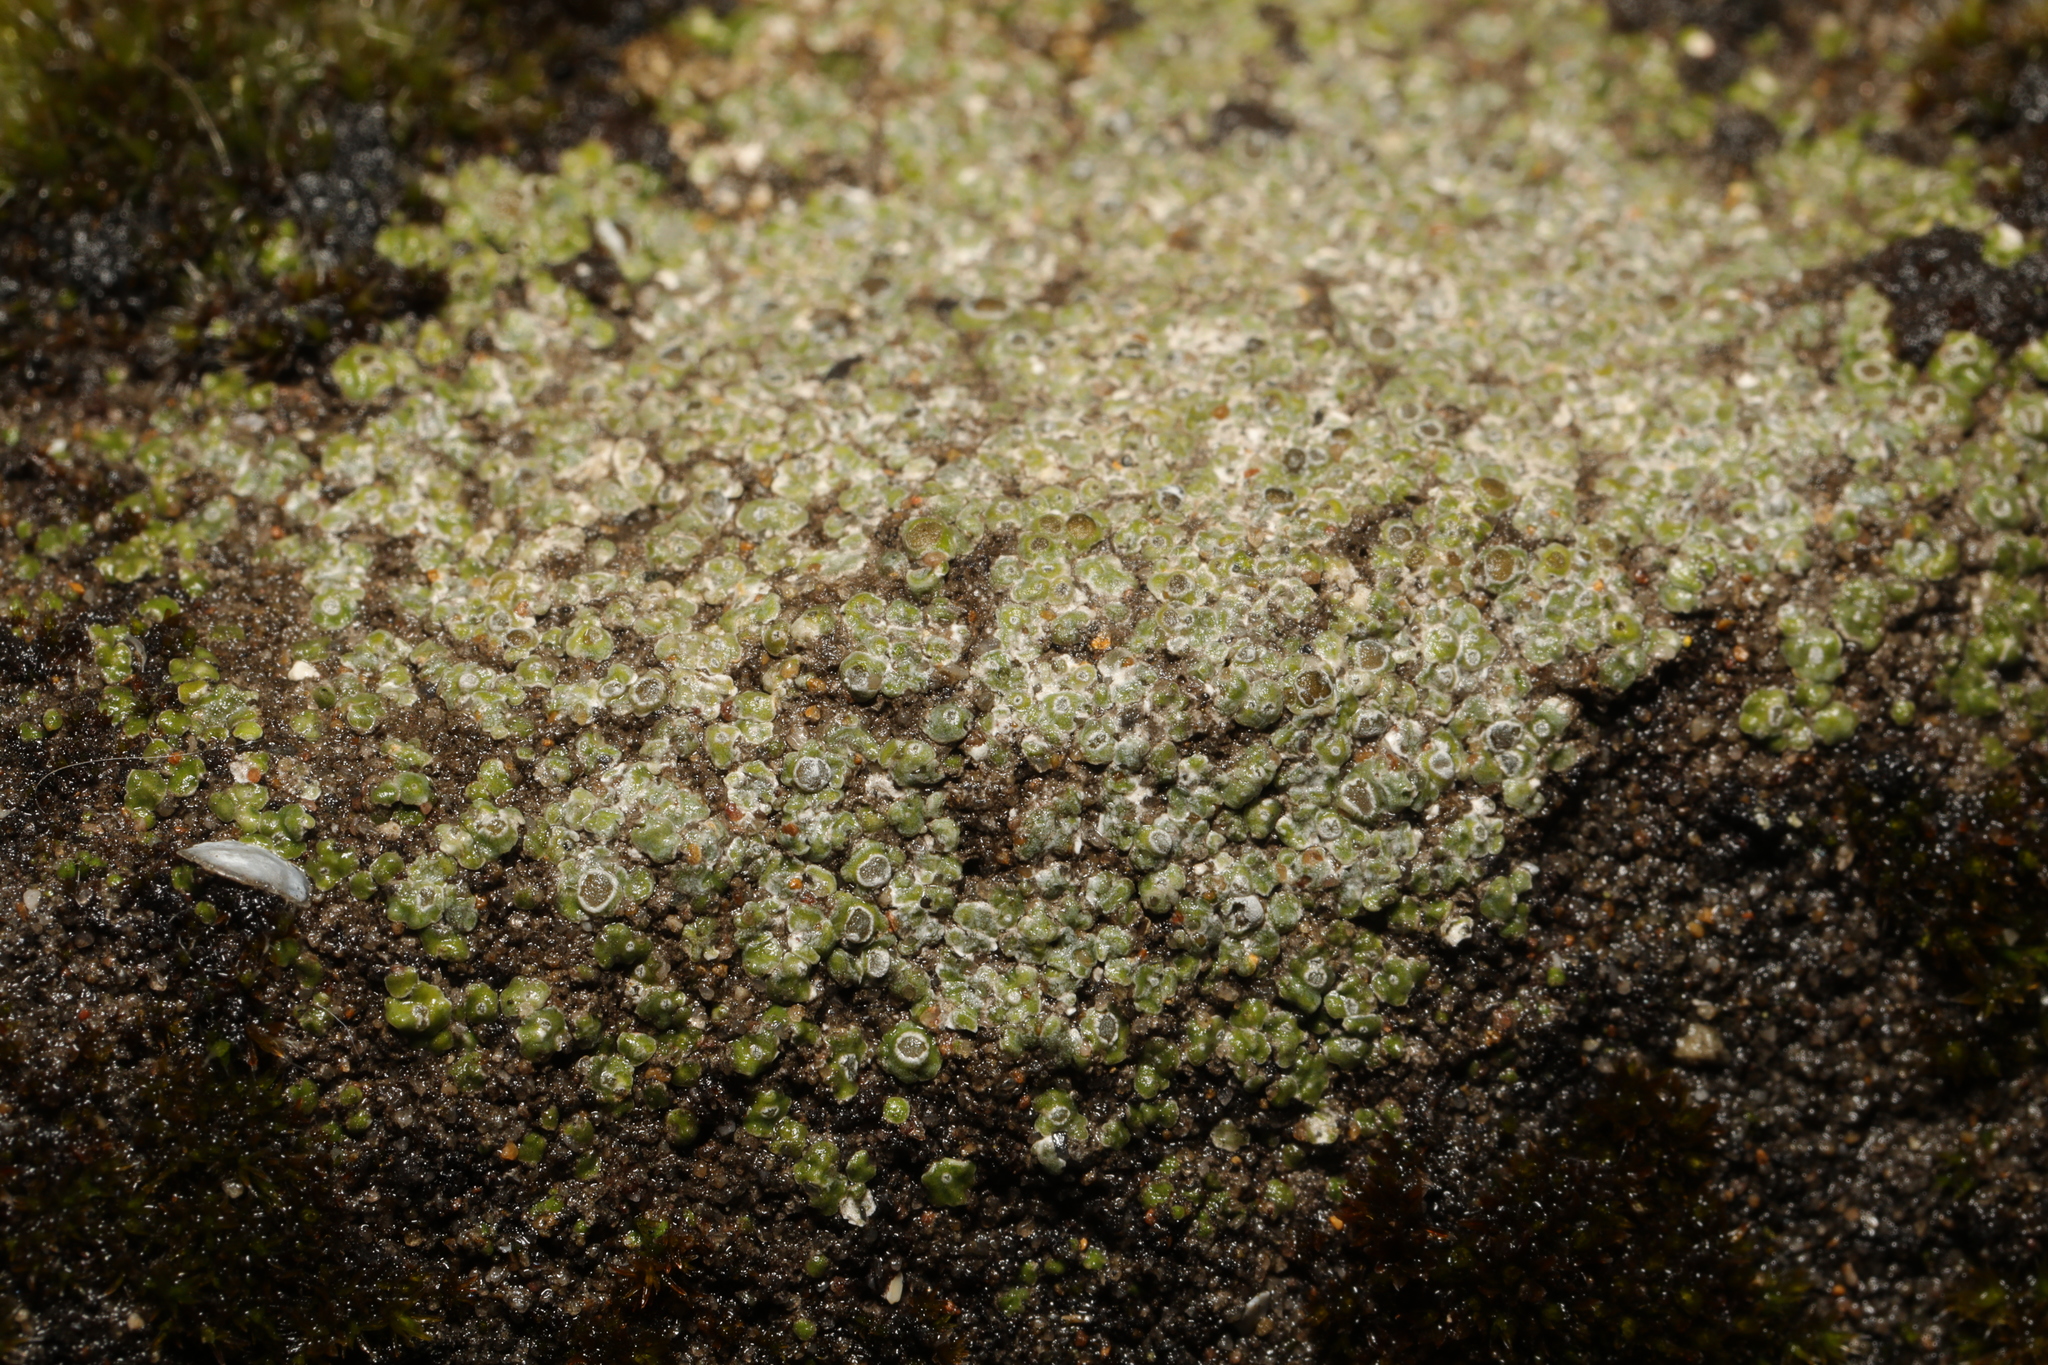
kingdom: Fungi
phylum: Ascomycota
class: Lecanoromycetes
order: Pertusariales
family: Megasporaceae
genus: Circinaria
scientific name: Circinaria contorta
